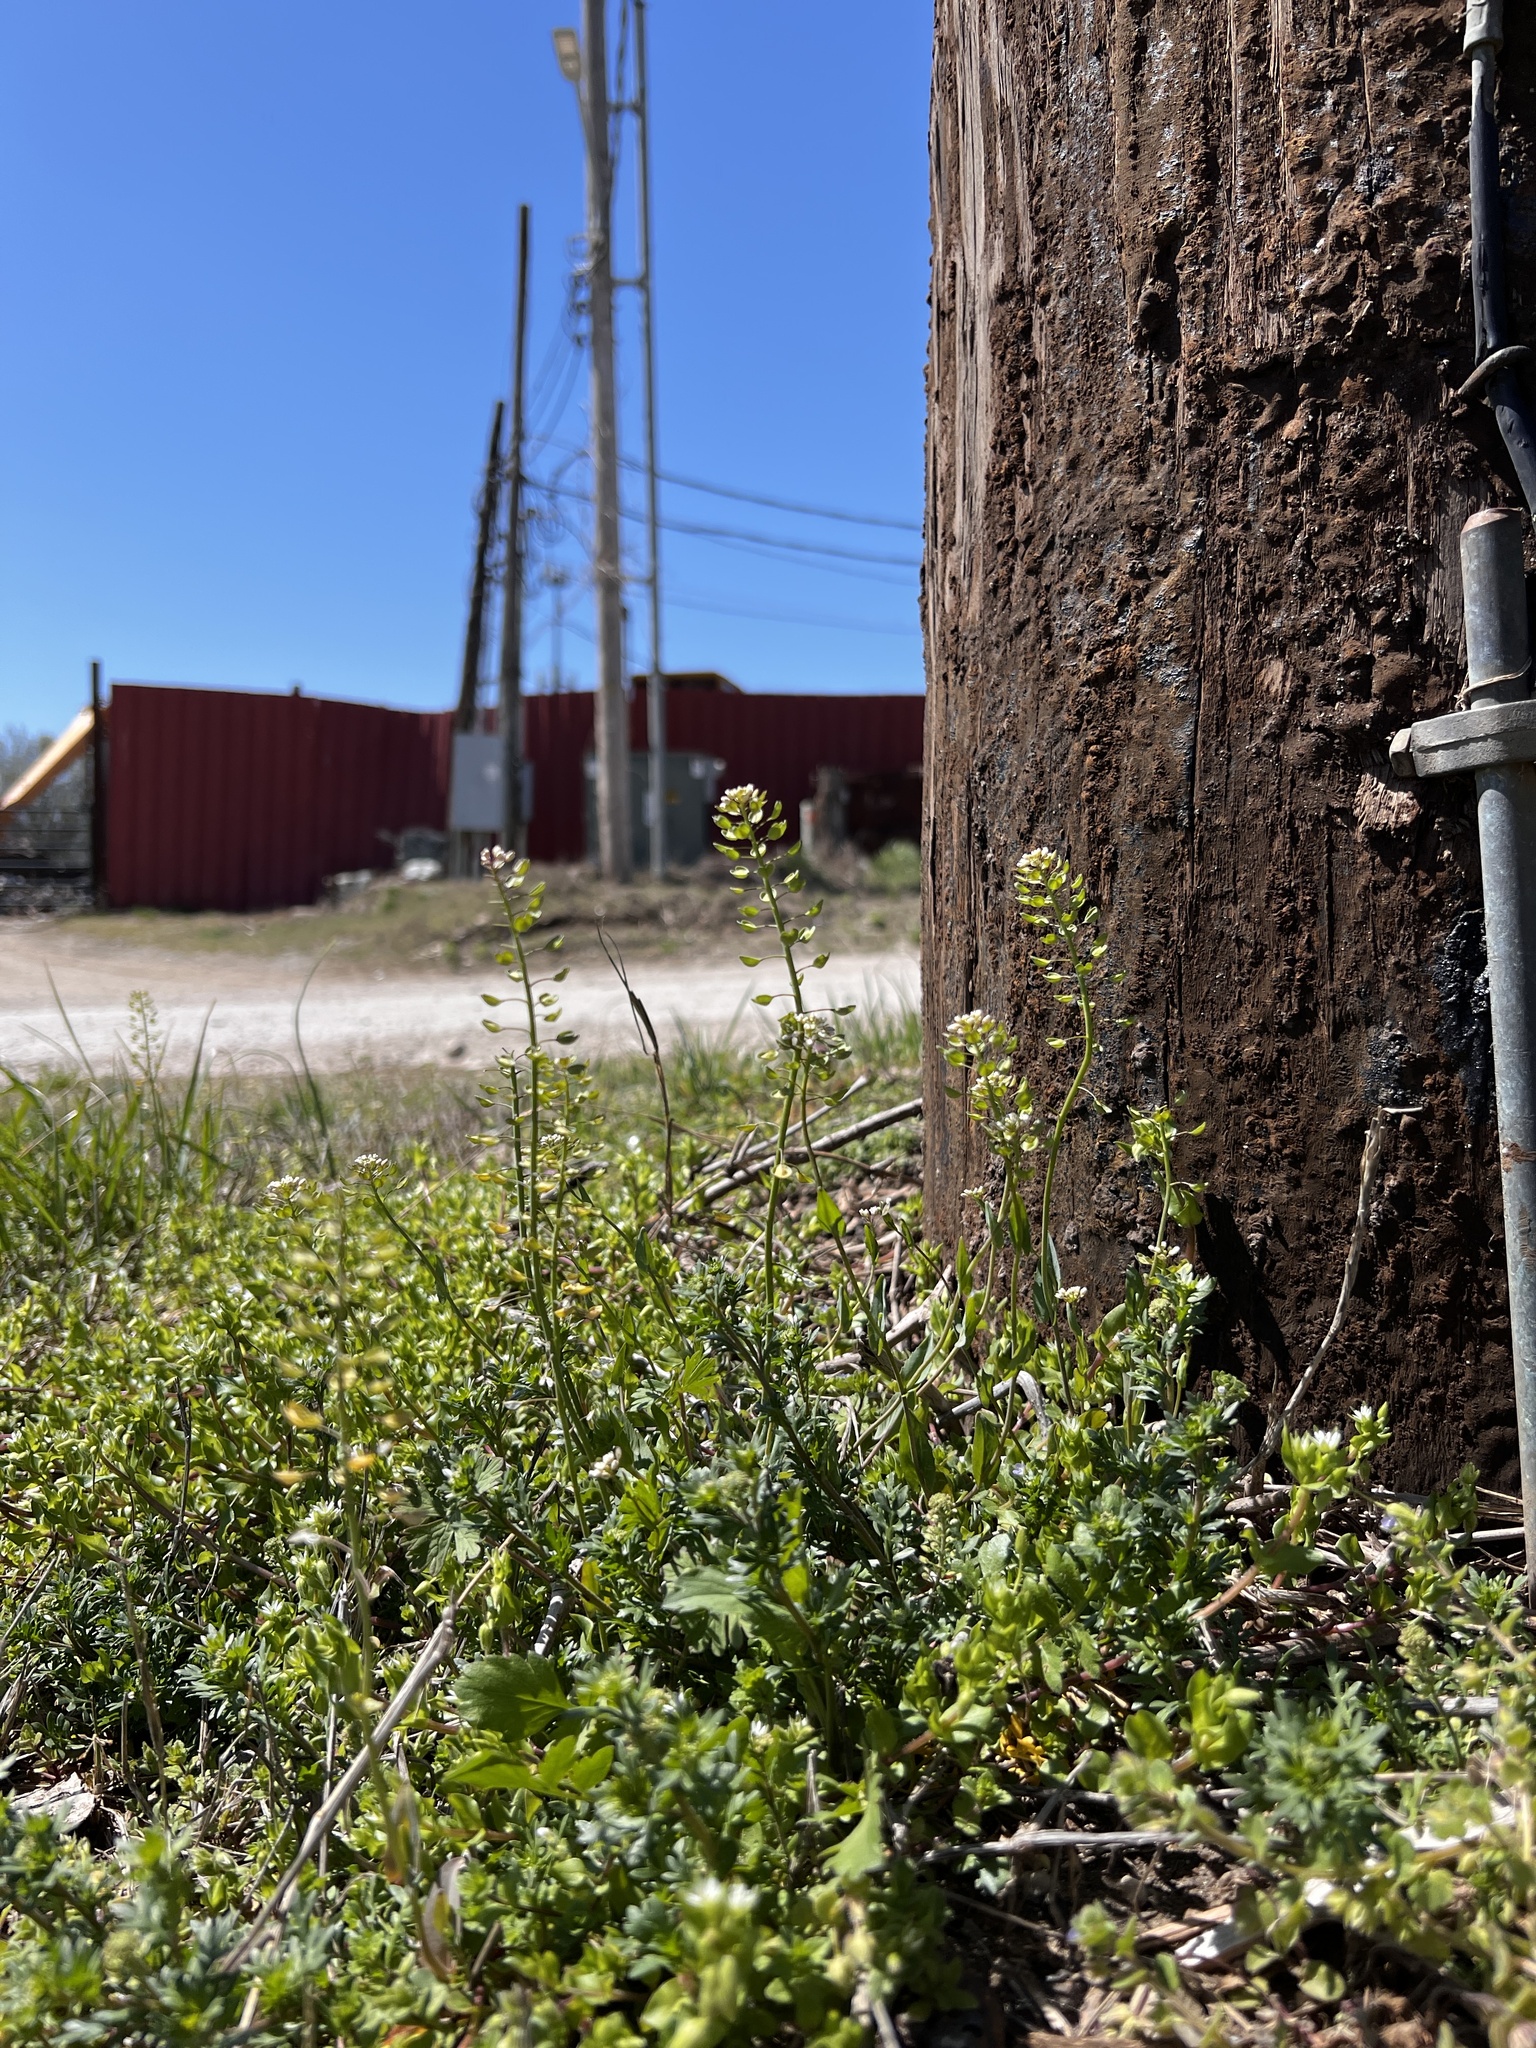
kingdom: Plantae
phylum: Tracheophyta
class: Magnoliopsida
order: Brassicales
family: Brassicaceae
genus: Noccaea
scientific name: Noccaea perfoliata
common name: Perfoliate pennycress
